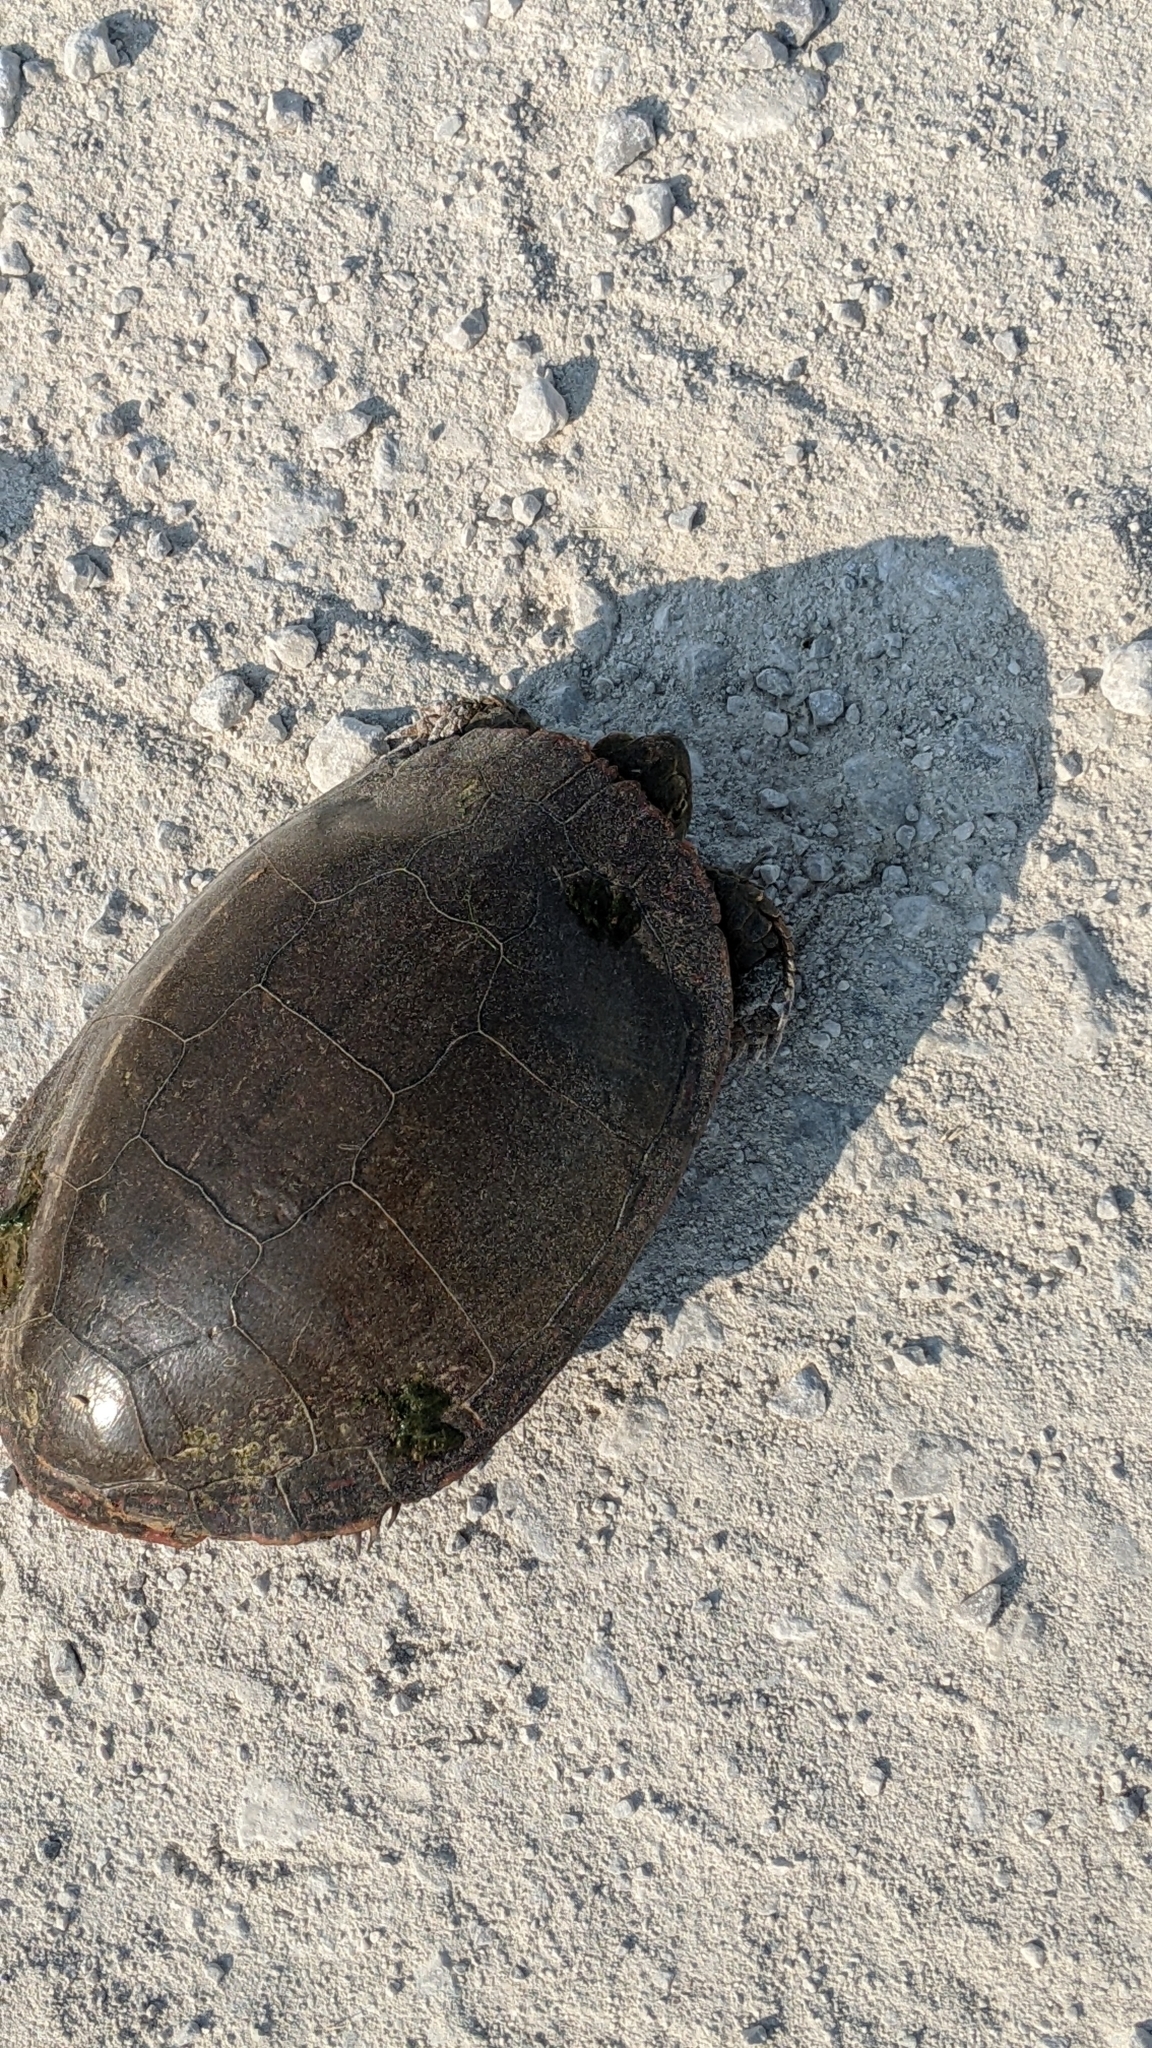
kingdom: Animalia
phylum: Chordata
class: Testudines
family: Emydidae
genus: Chrysemys
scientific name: Chrysemys picta
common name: Painted turtle
